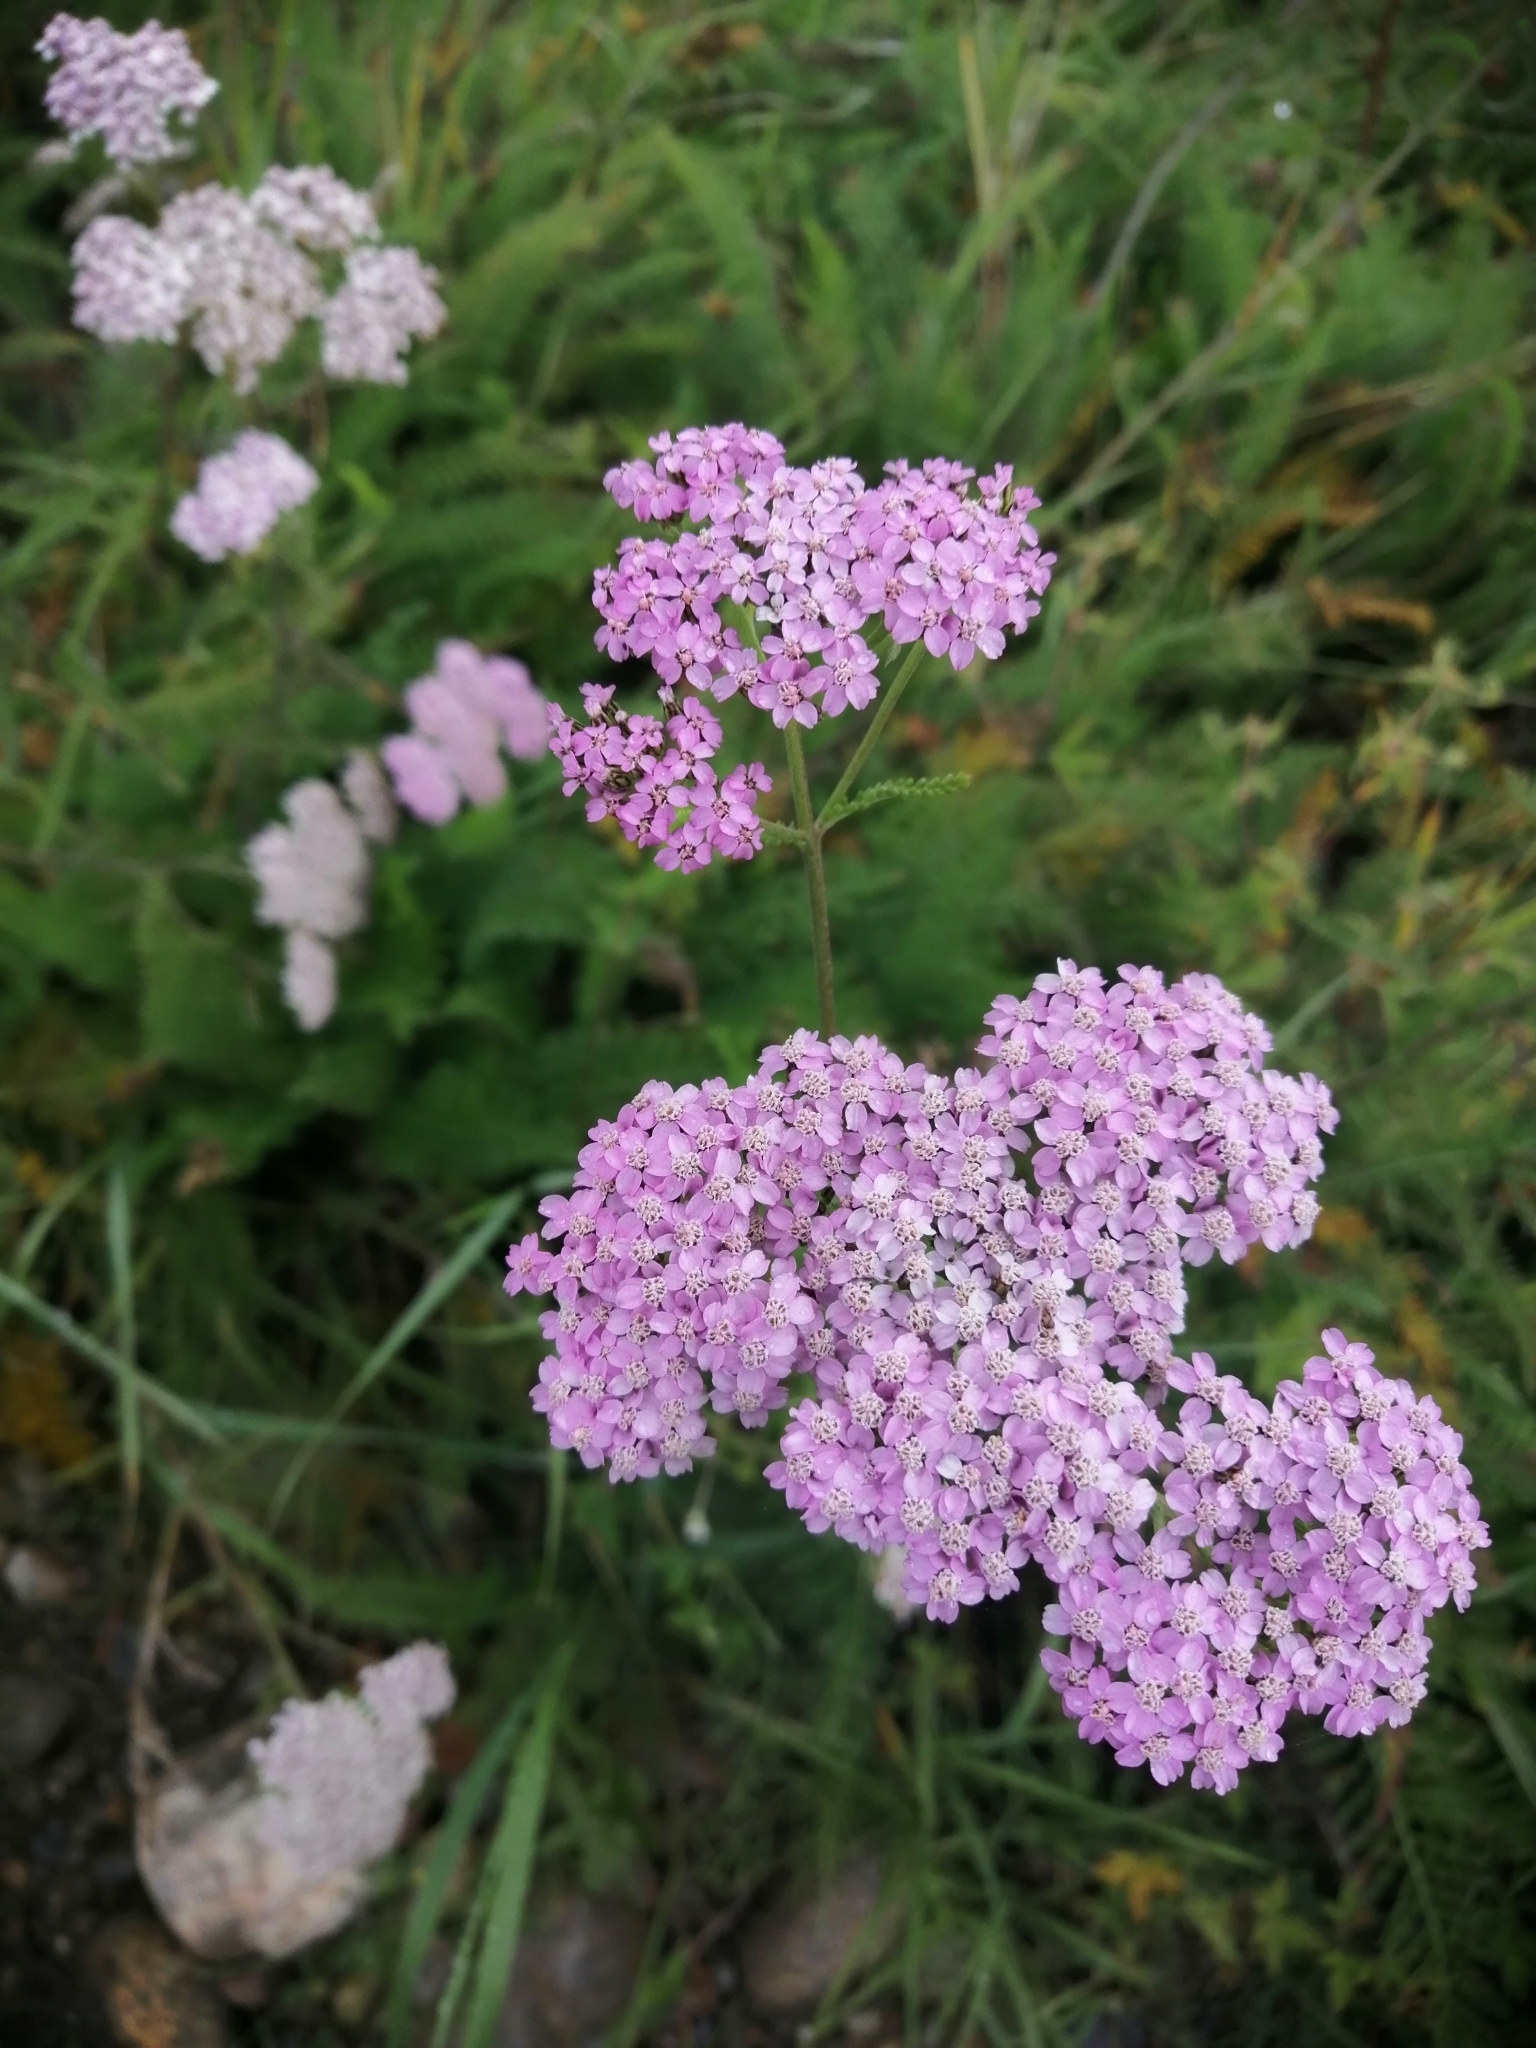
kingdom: Plantae
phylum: Tracheophyta
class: Magnoliopsida
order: Asterales
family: Asteraceae
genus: Achillea
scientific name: Achillea asiatica
